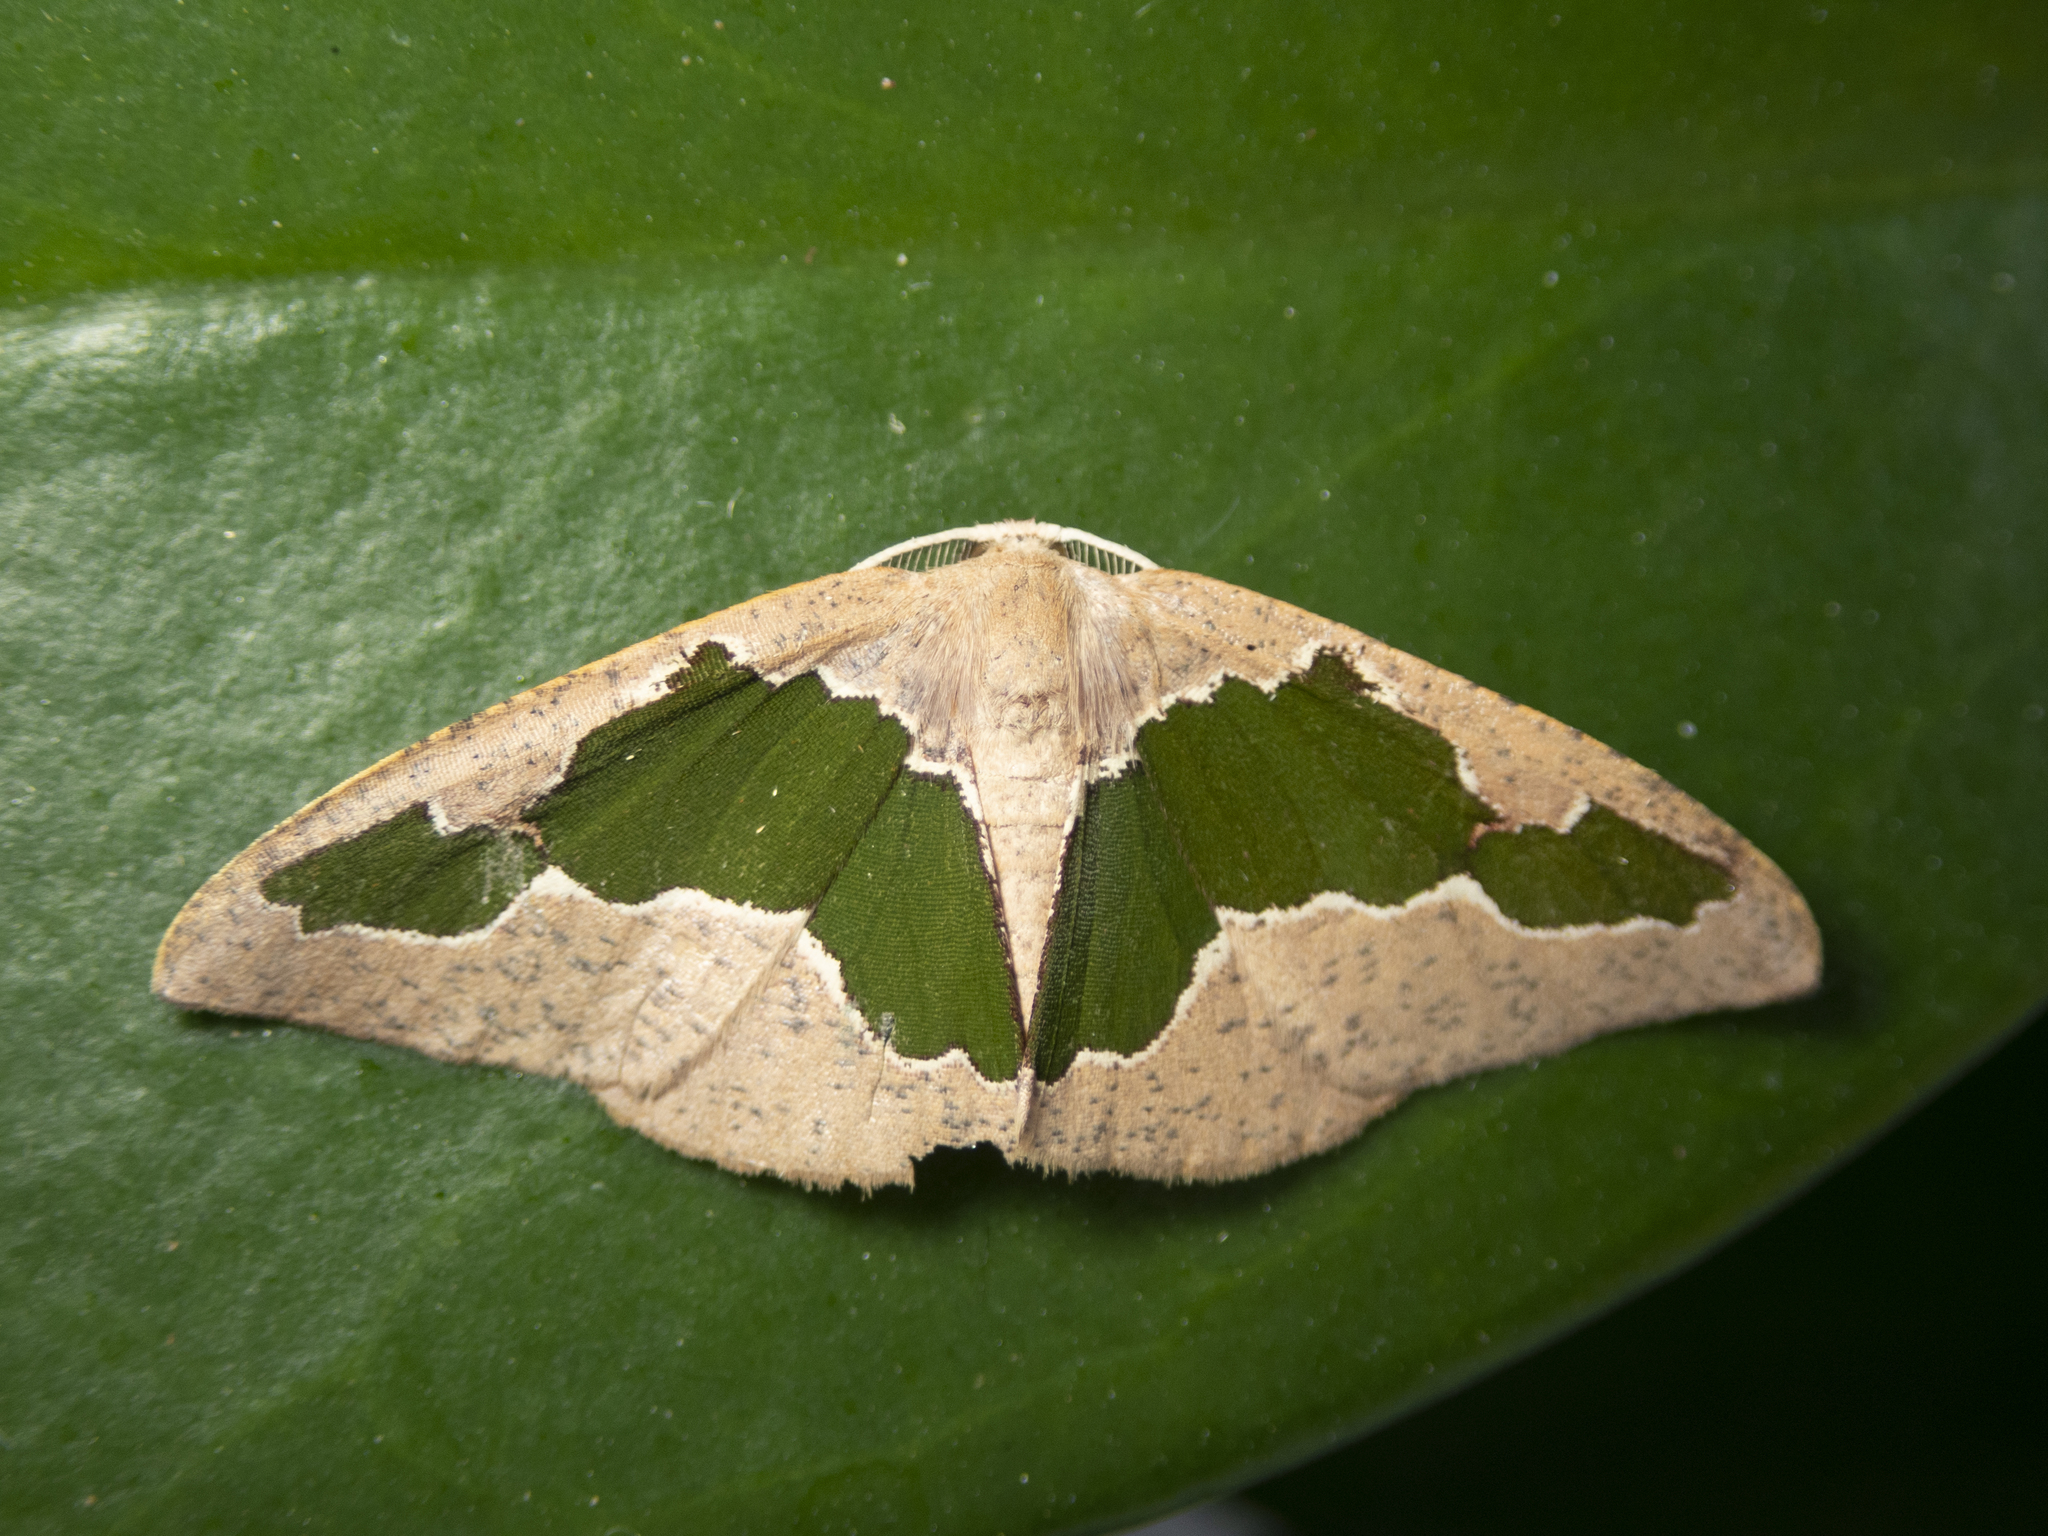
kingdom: Animalia
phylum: Arthropoda
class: Insecta
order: Lepidoptera
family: Geometridae
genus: Celenna
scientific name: Celenna festivaria
